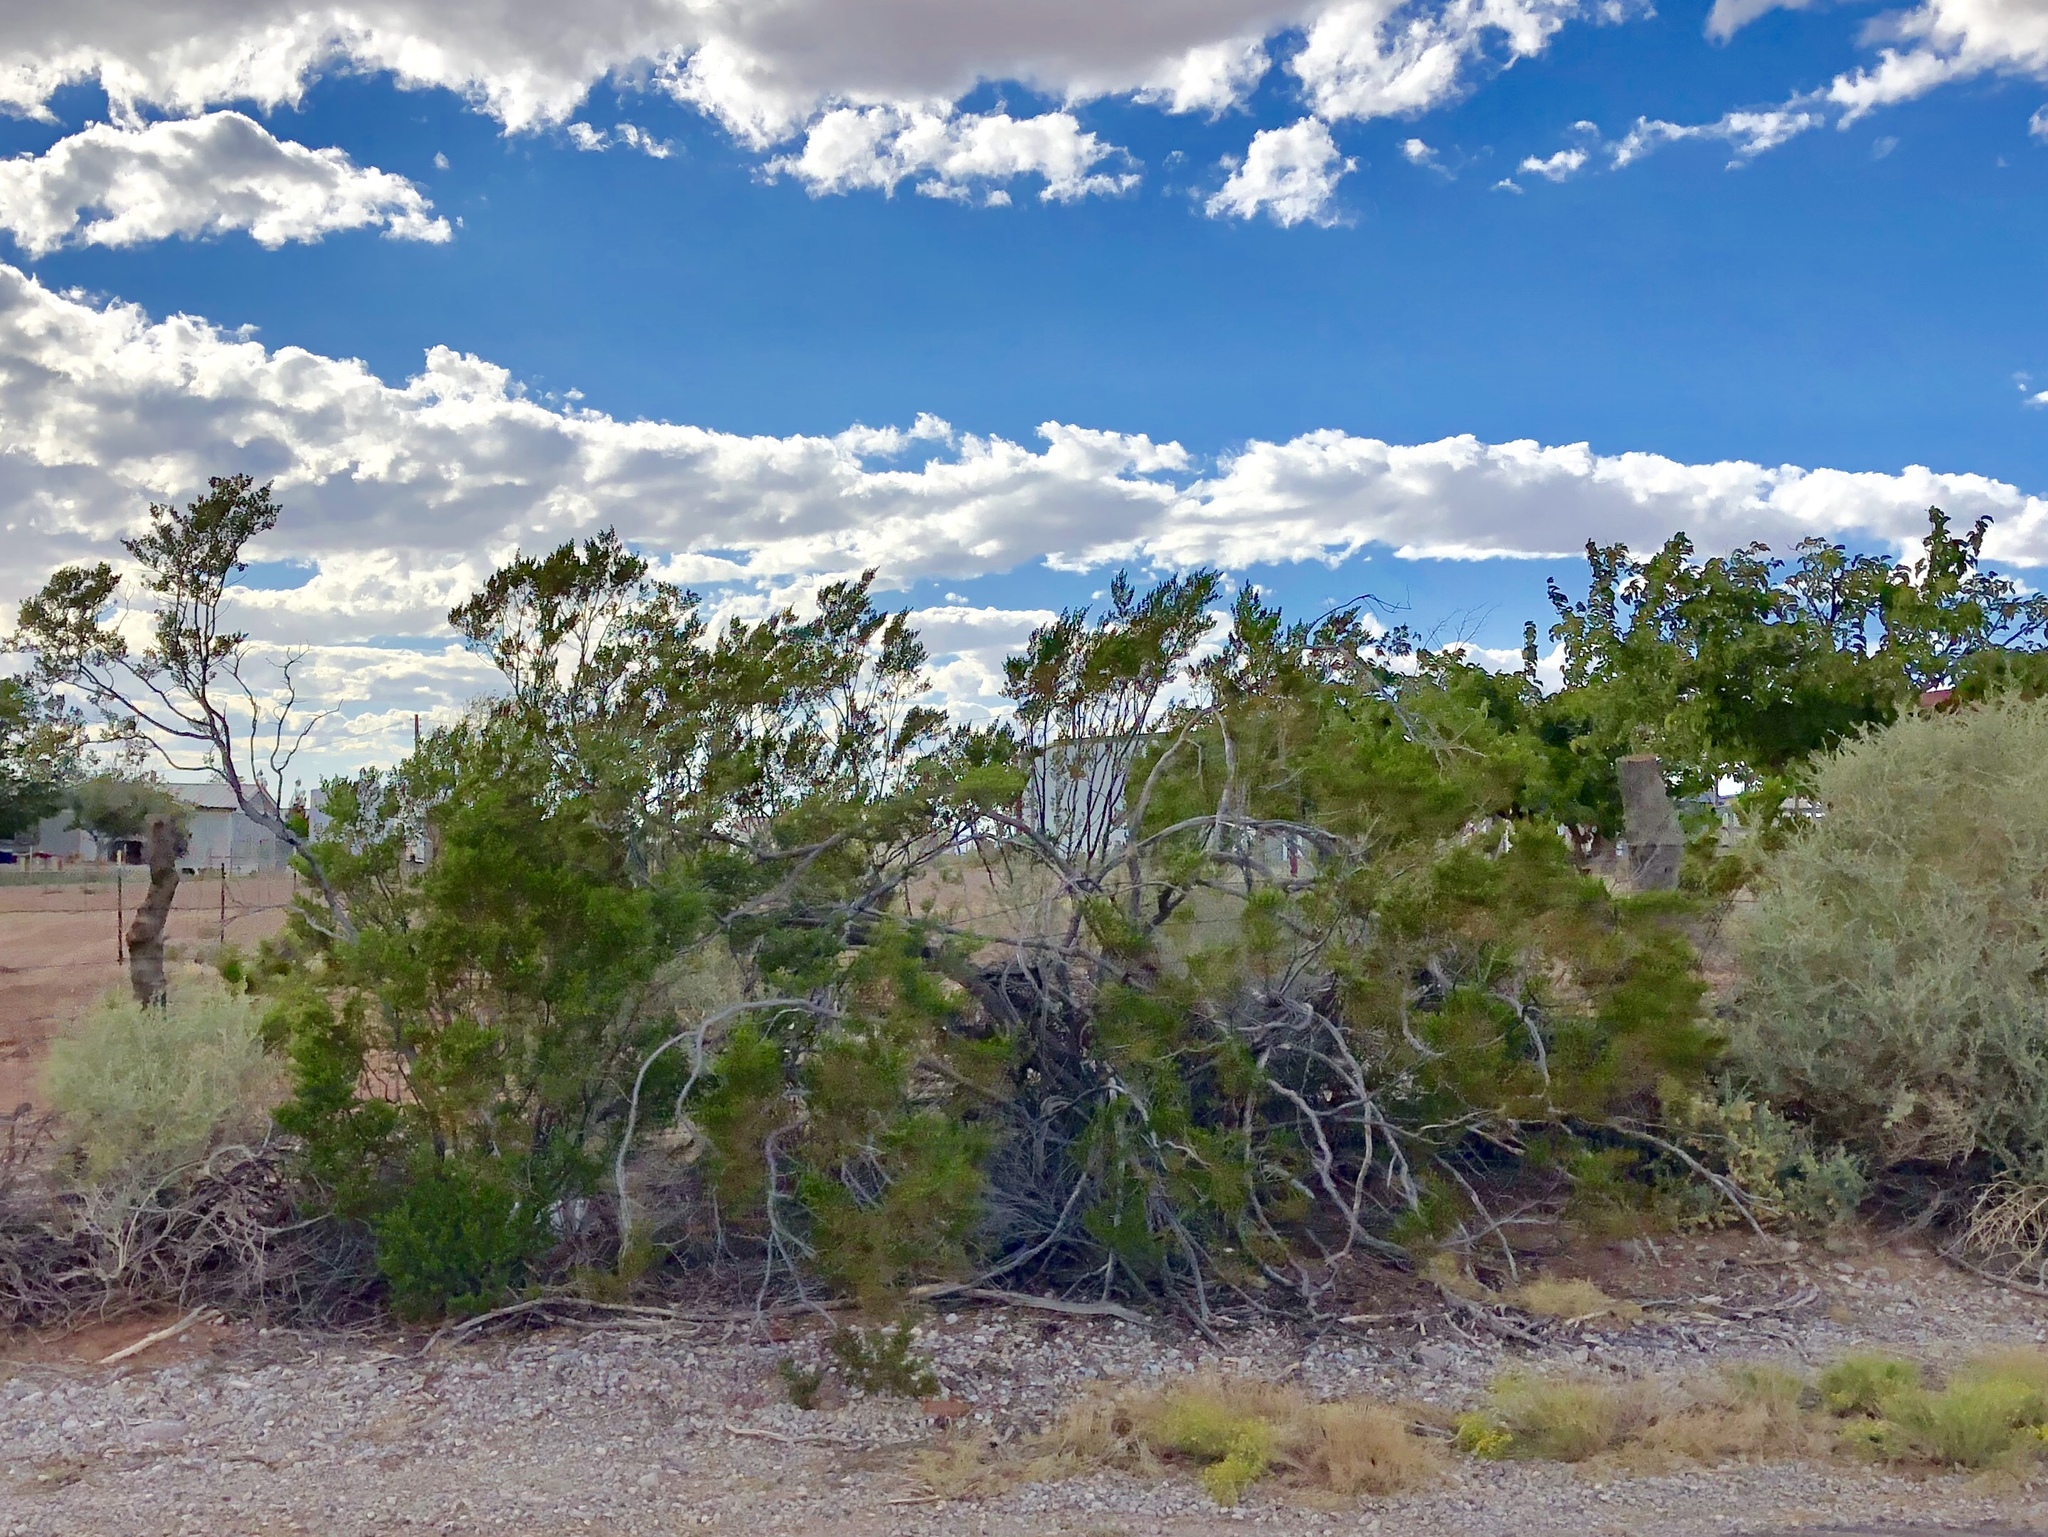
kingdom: Plantae
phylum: Tracheophyta
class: Magnoliopsida
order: Zygophyllales
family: Zygophyllaceae
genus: Larrea
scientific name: Larrea tridentata
